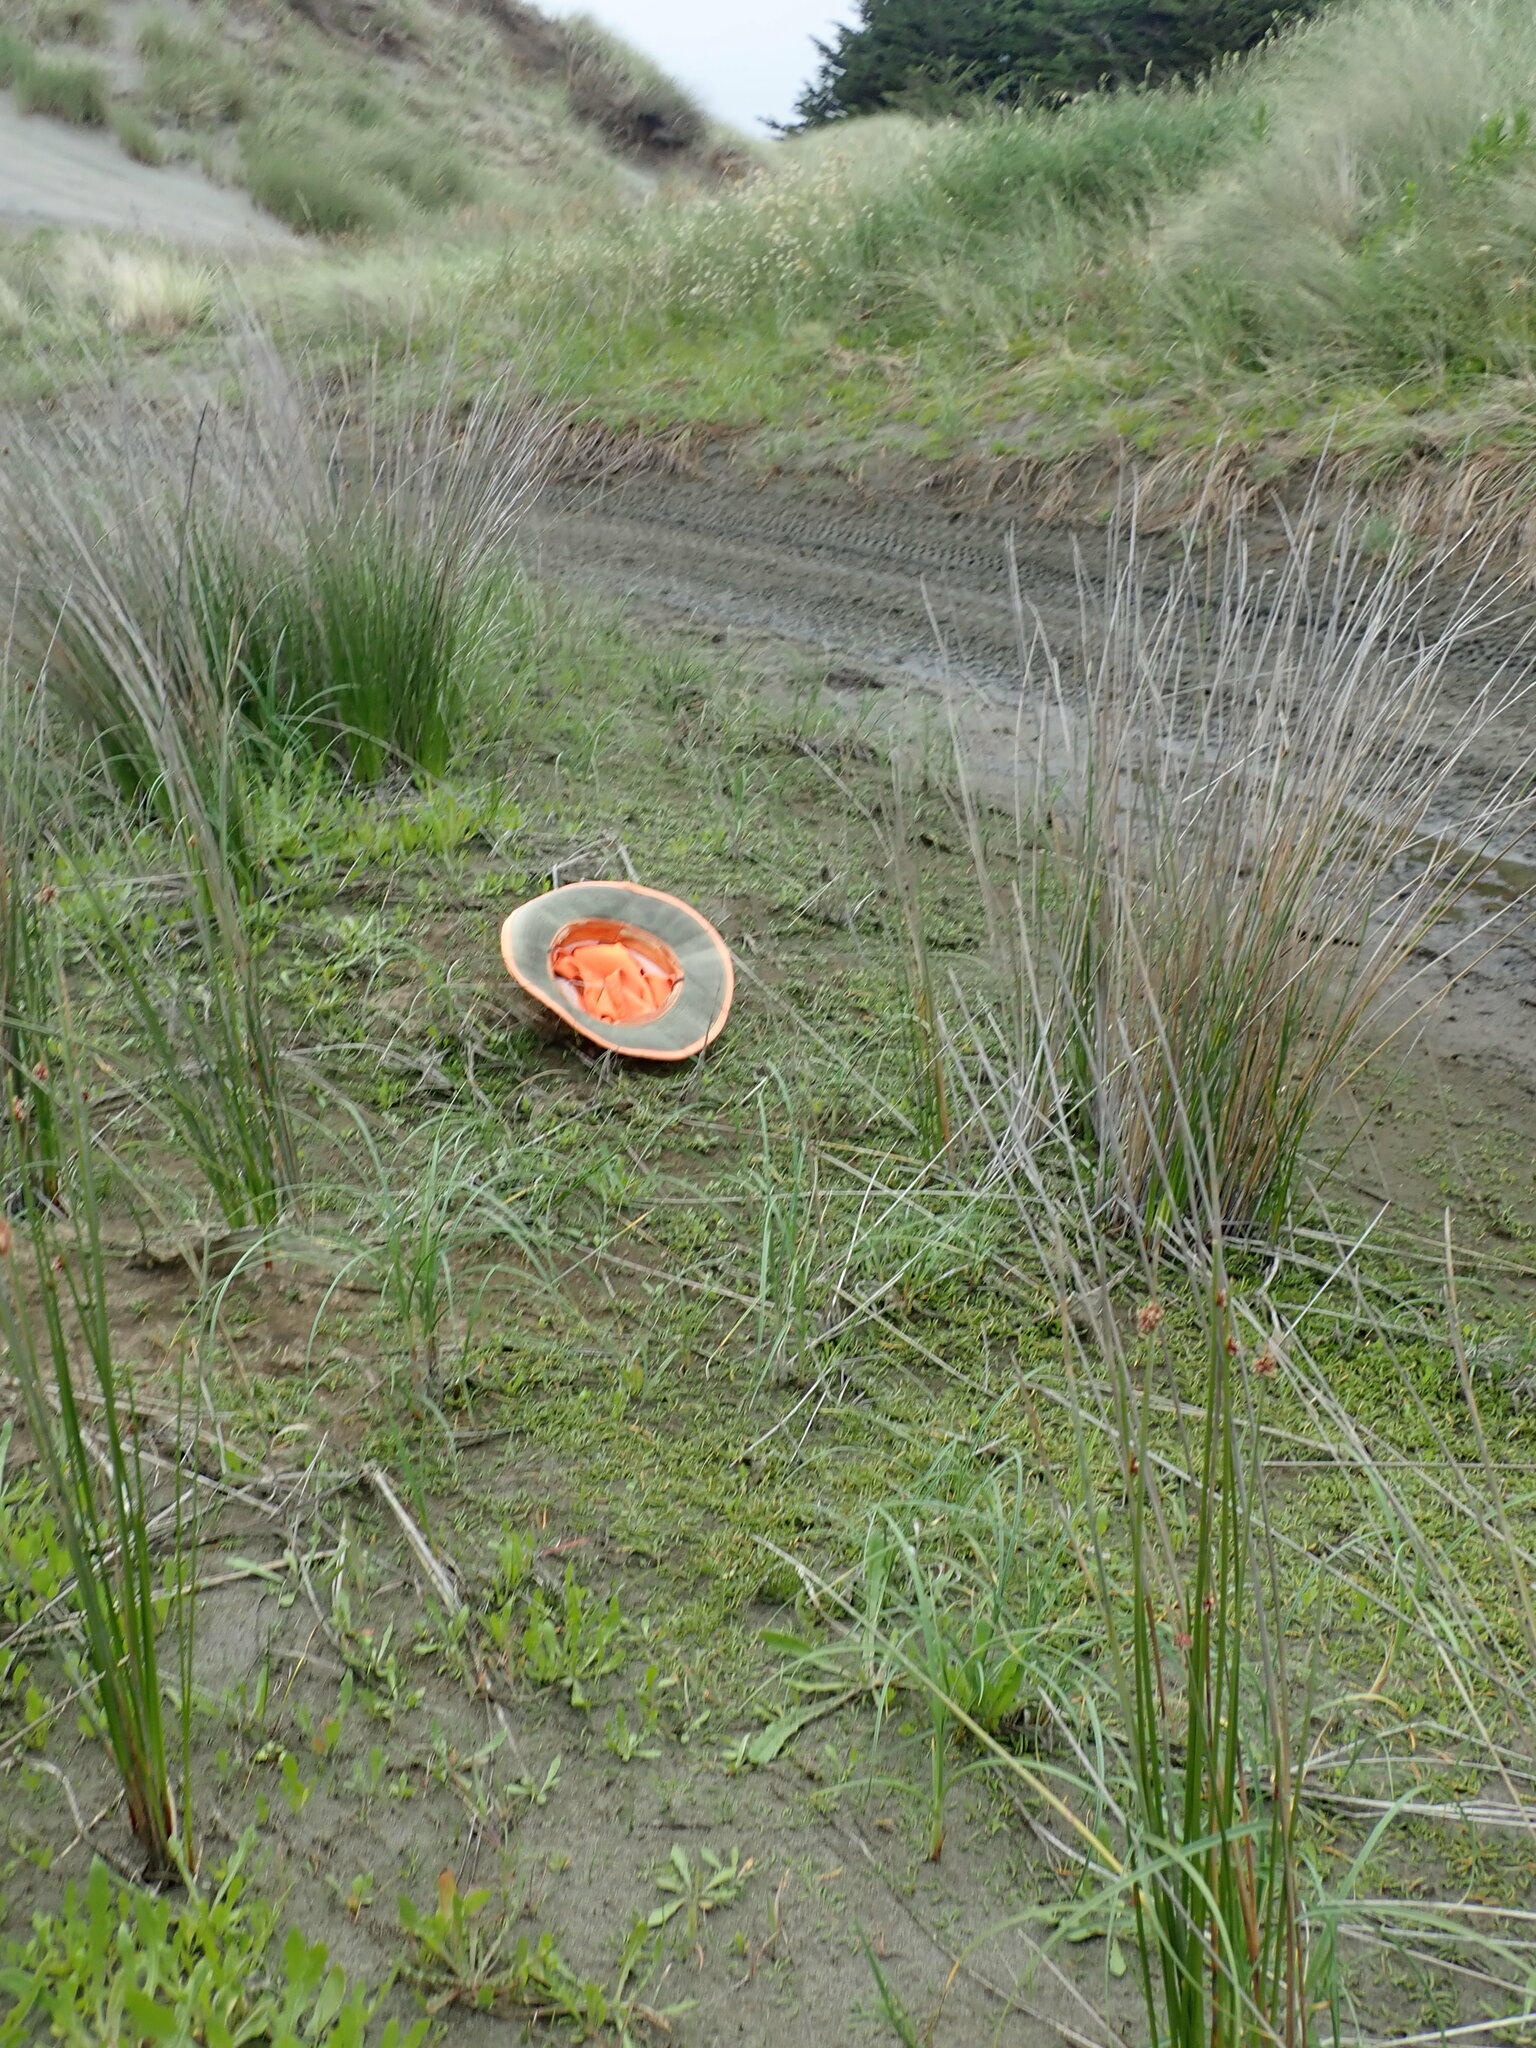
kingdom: Plantae
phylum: Tracheophyta
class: Magnoliopsida
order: Apiales
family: Apiaceae
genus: Lilaeopsis
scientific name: Lilaeopsis novae-zelandiae
